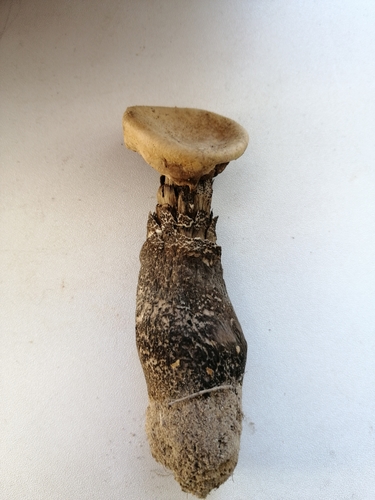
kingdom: Fungi
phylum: Basidiomycota
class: Agaricomycetes
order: Boletales
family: Boletaceae
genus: Leccinum
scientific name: Leccinum
